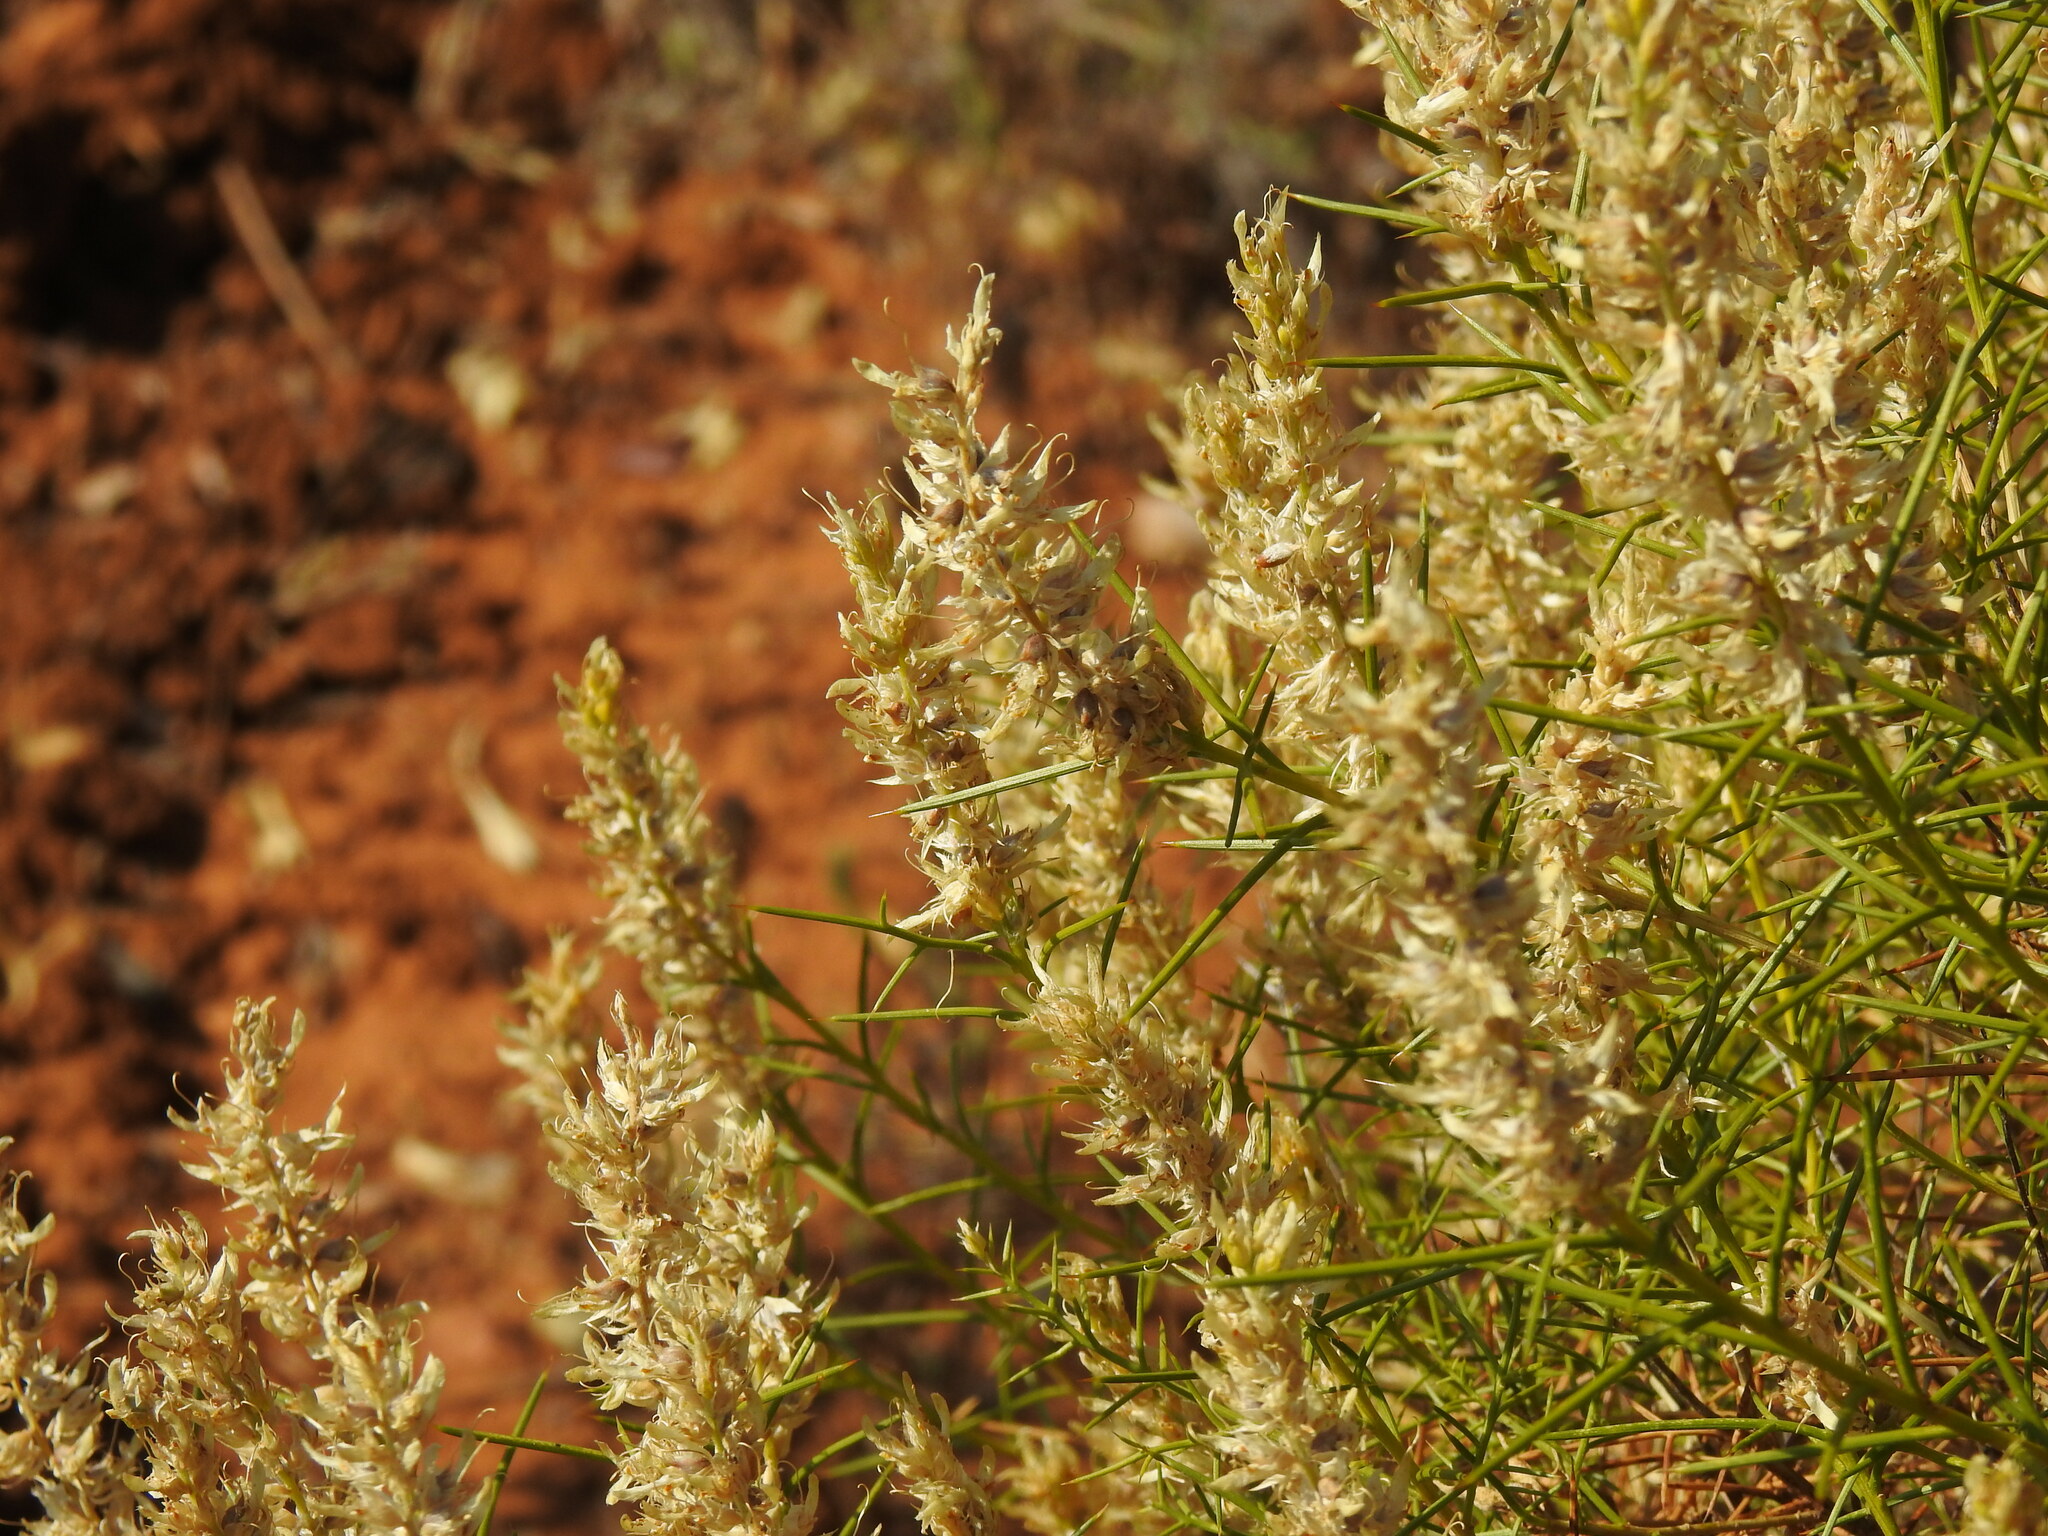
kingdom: Plantae
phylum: Tracheophyta
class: Magnoliopsida
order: Fabales
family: Fabaceae
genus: Genista
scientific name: Genista hirsuta
